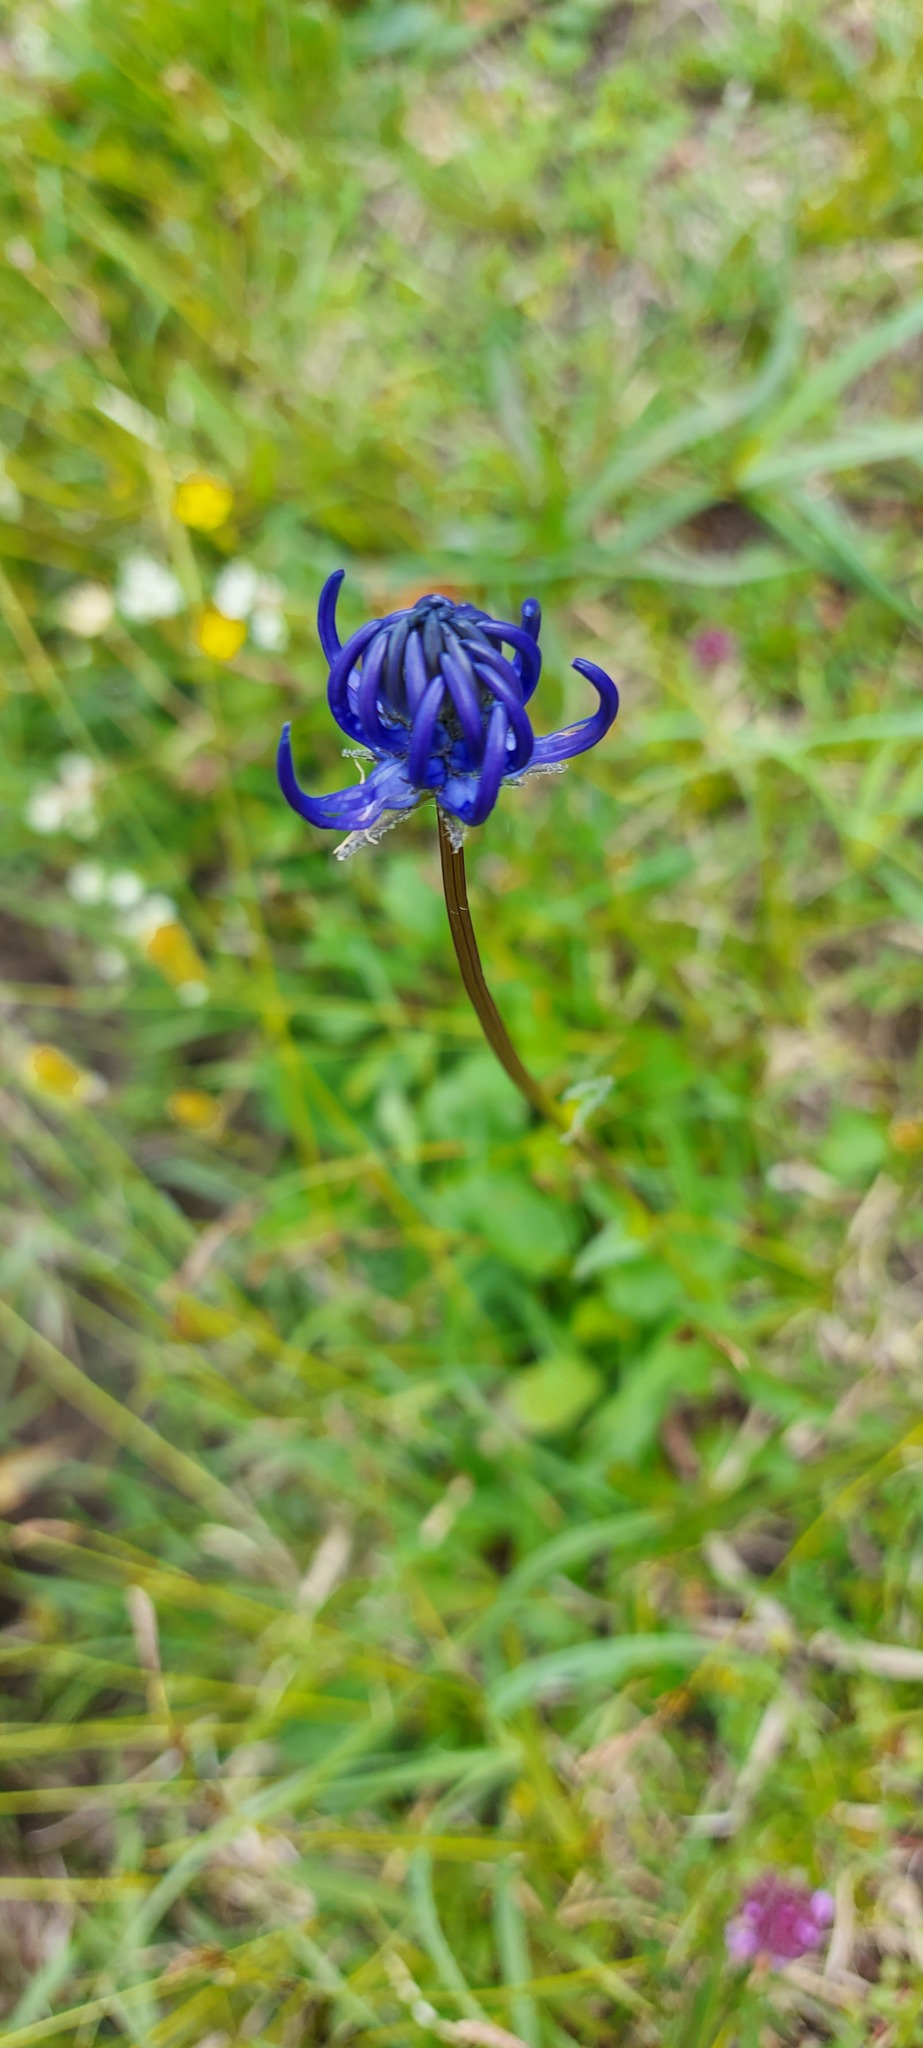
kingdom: Plantae
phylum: Tracheophyta
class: Magnoliopsida
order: Asterales
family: Campanulaceae
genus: Phyteuma
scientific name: Phyteuma hemisphaericum
